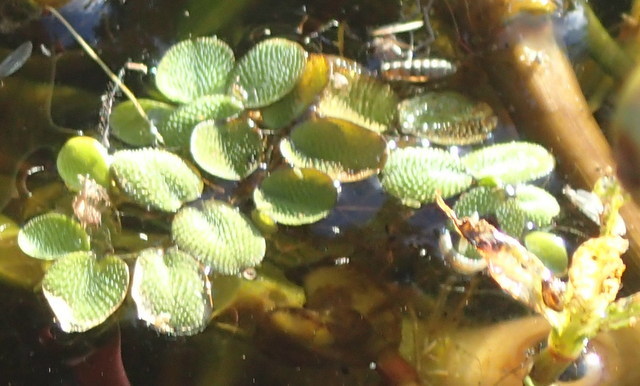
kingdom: Plantae
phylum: Tracheophyta
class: Polypodiopsida
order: Salviniales
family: Salviniaceae
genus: Salvinia
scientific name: Salvinia minima
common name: Water spangles
